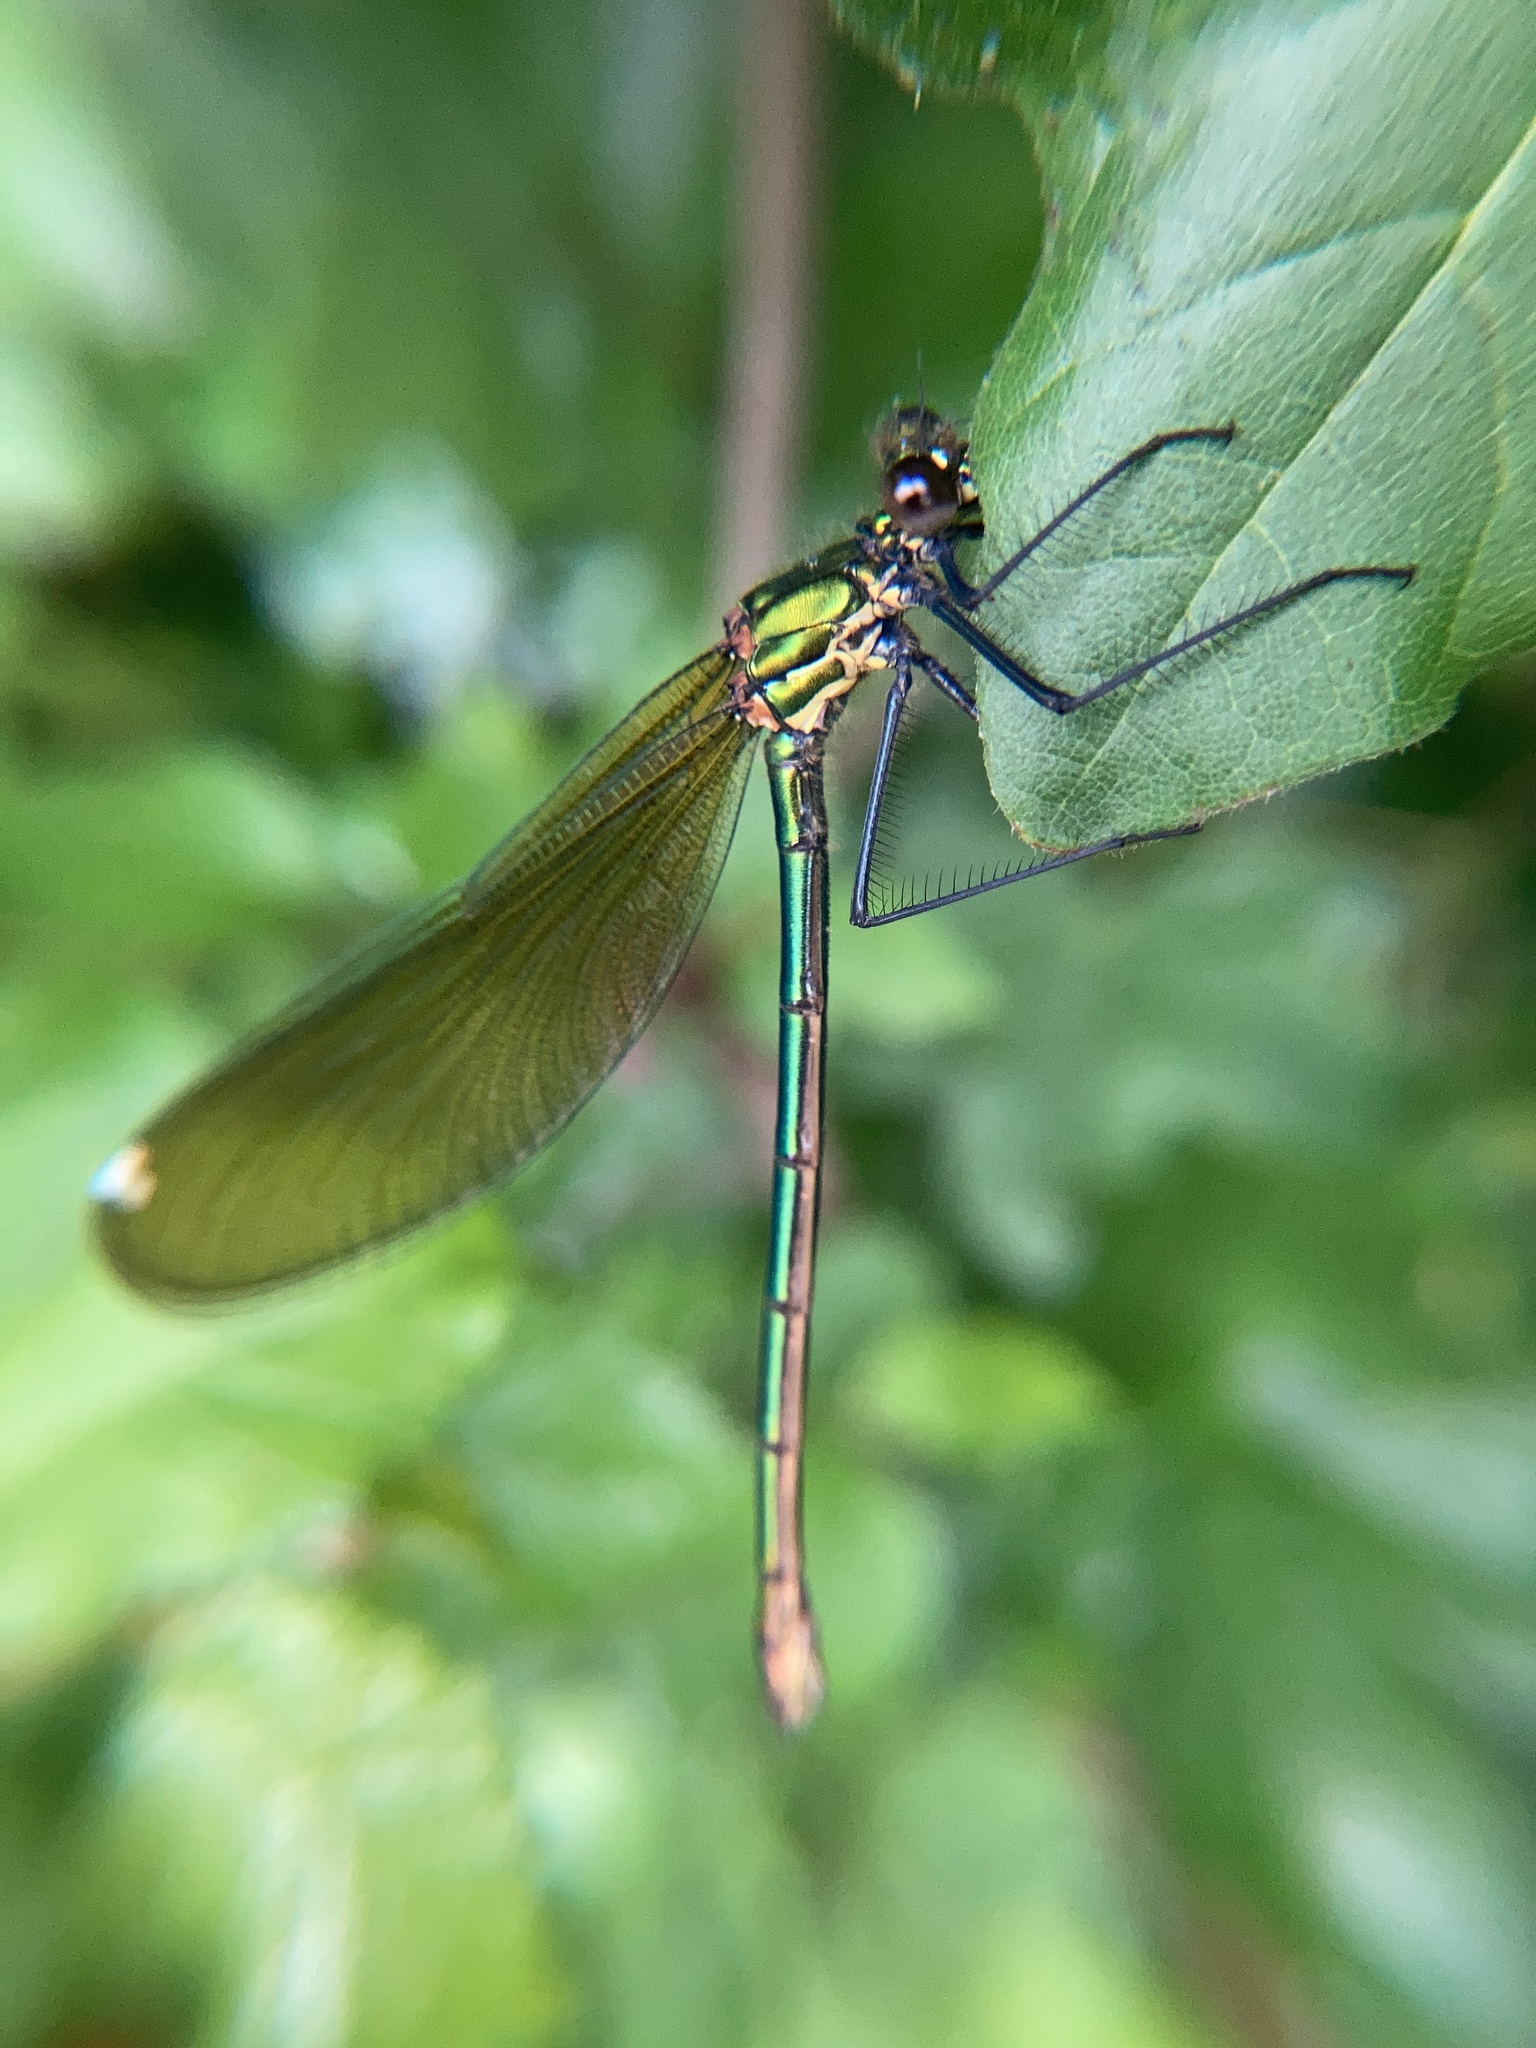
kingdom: Animalia
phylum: Arthropoda
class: Insecta
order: Odonata
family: Calopterygidae
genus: Calopteryx
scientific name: Calopteryx splendens
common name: Banded demoiselle
